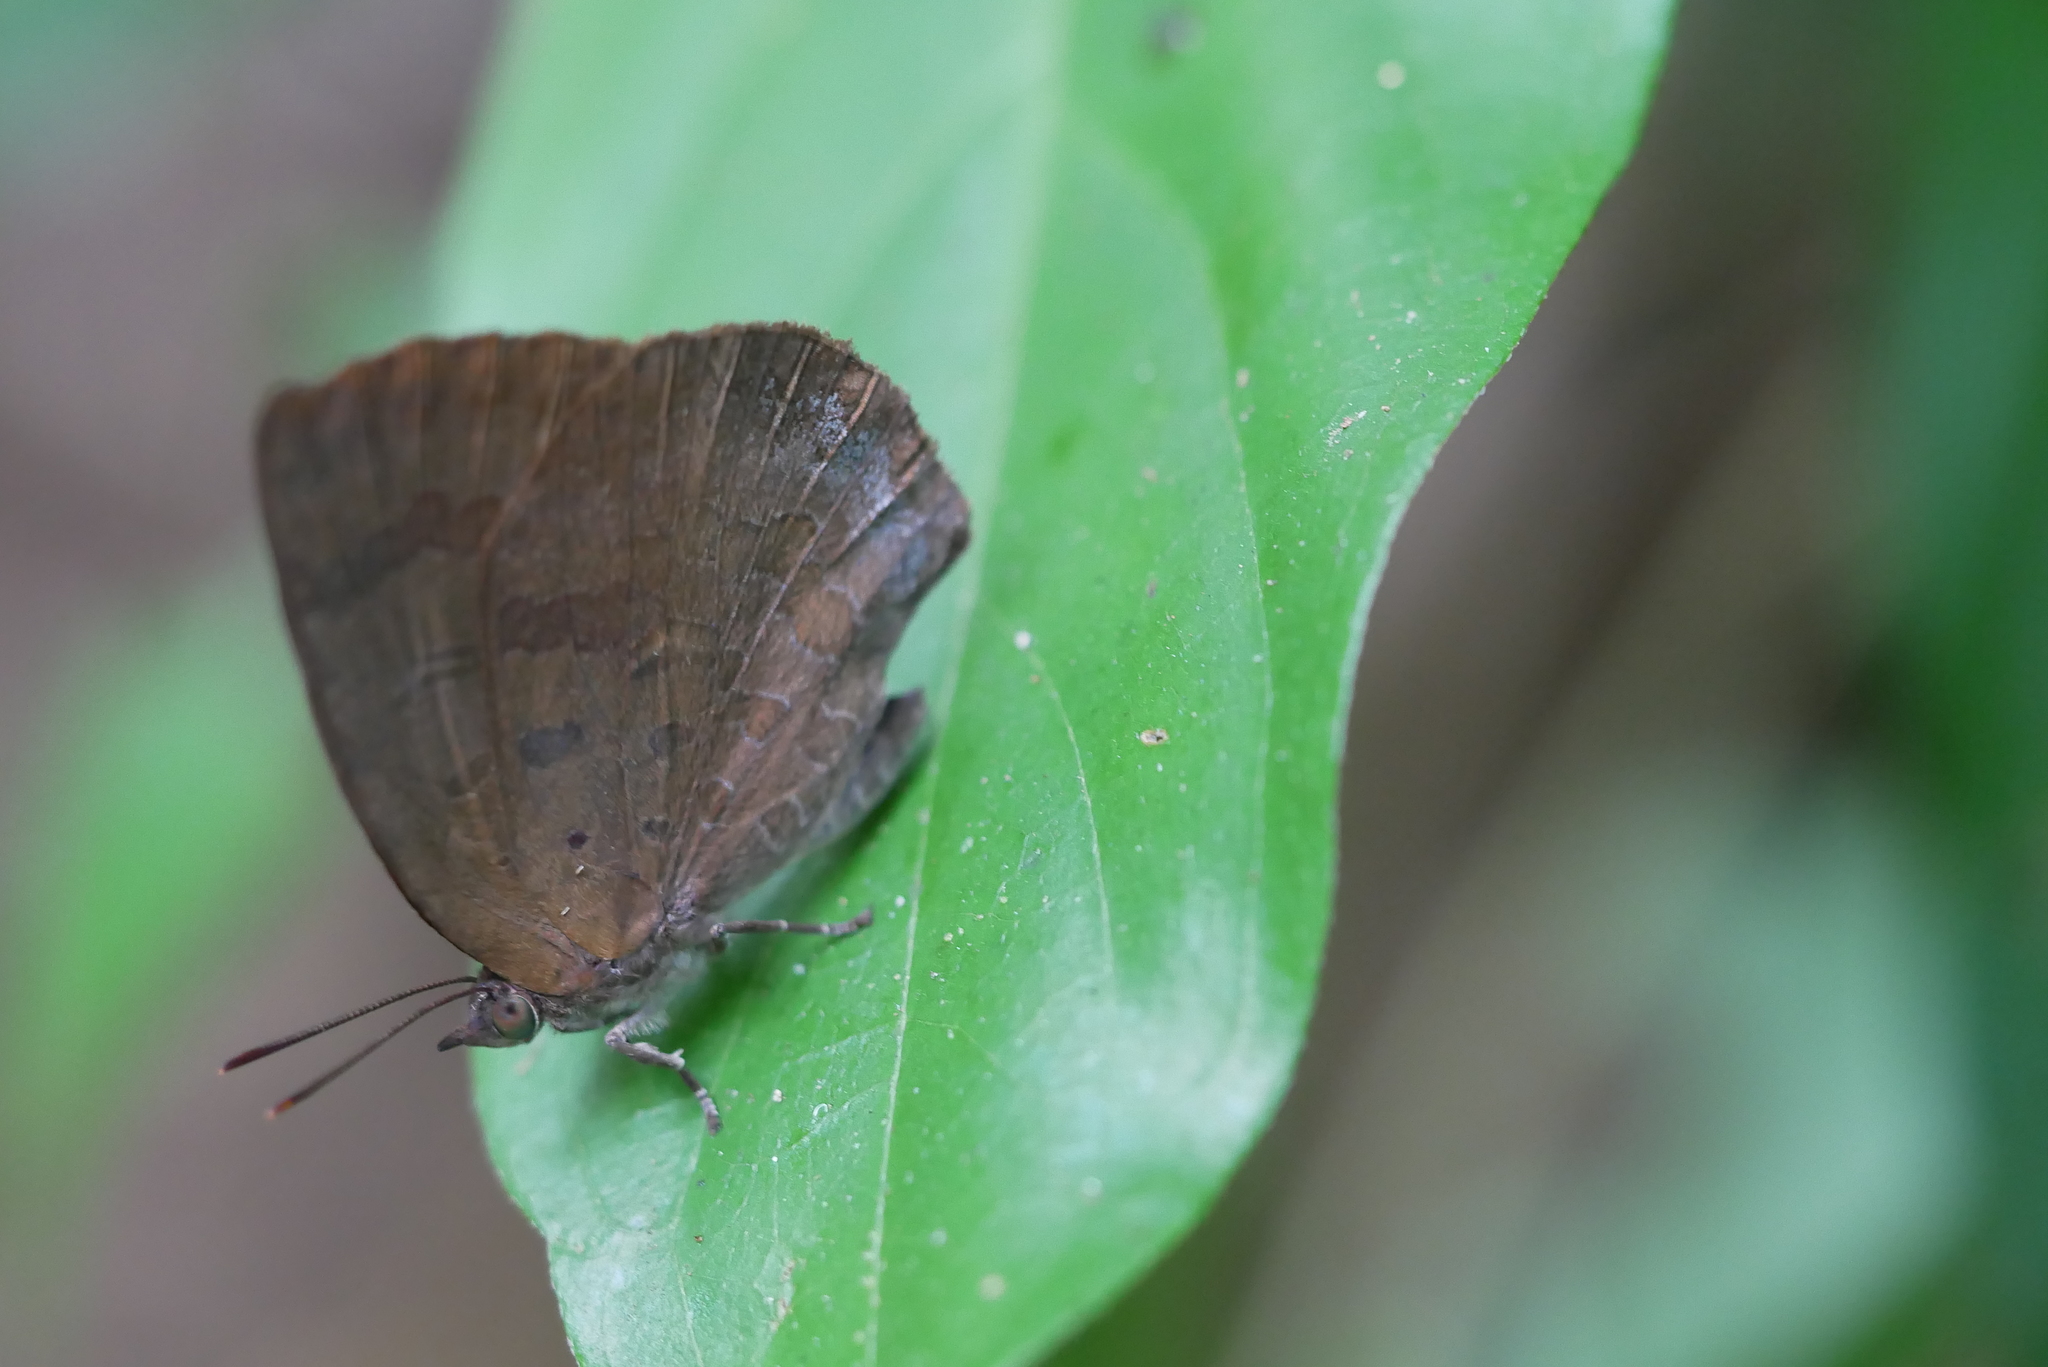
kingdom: Animalia
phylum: Arthropoda
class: Insecta
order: Lepidoptera
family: Lycaenidae
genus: Arhopala
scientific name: Arhopala japonica
